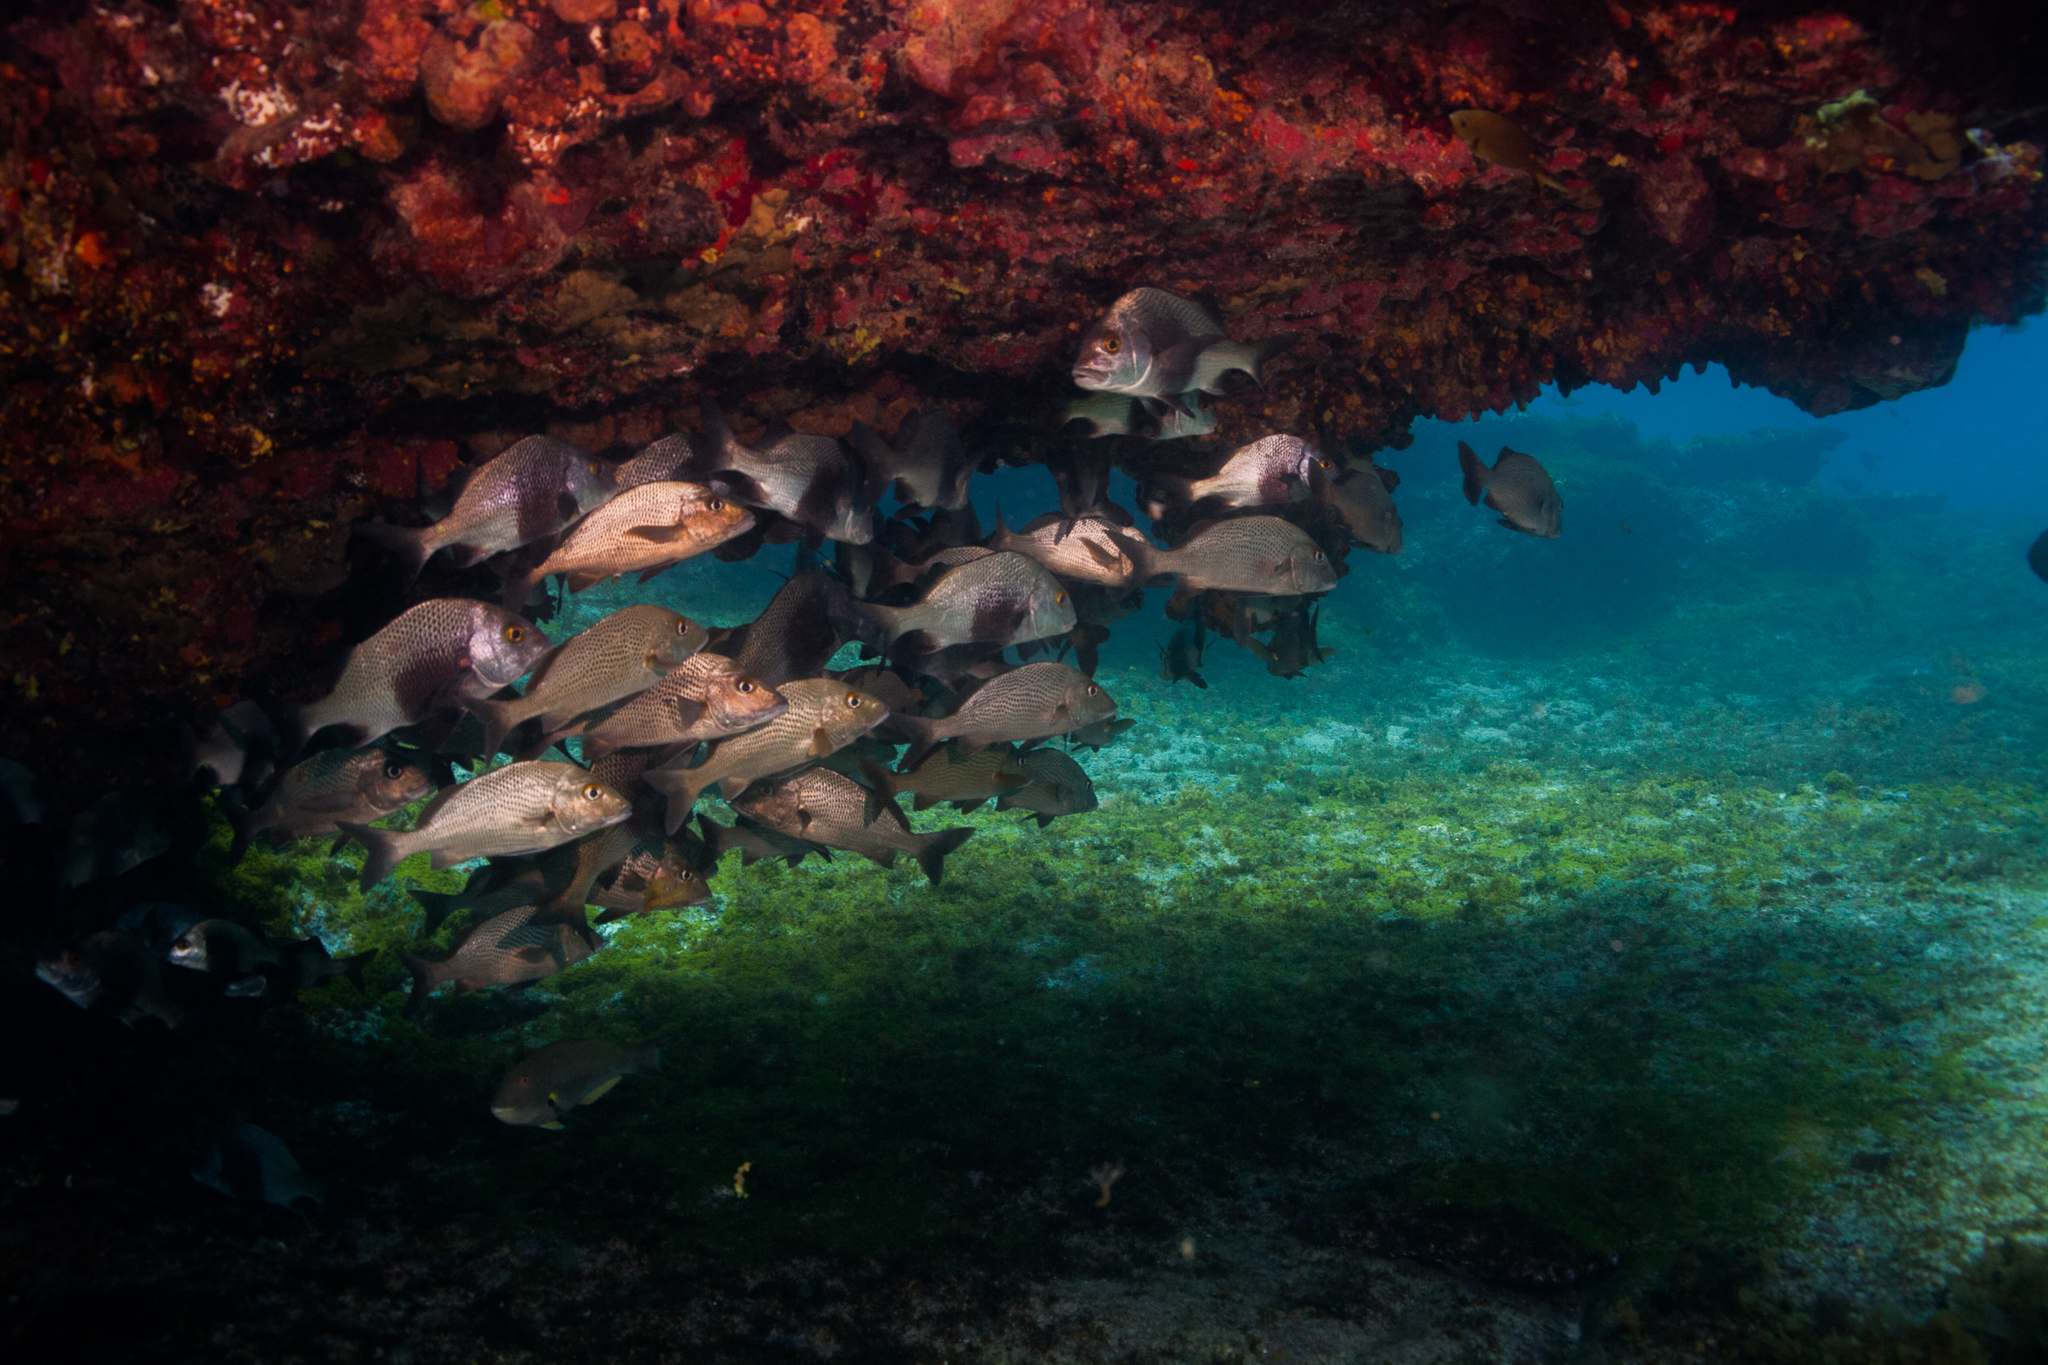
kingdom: Animalia
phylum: Chordata
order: Perciformes
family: Haemulidae
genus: Anisotremus
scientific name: Anisotremus surinamensis
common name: Black margate
